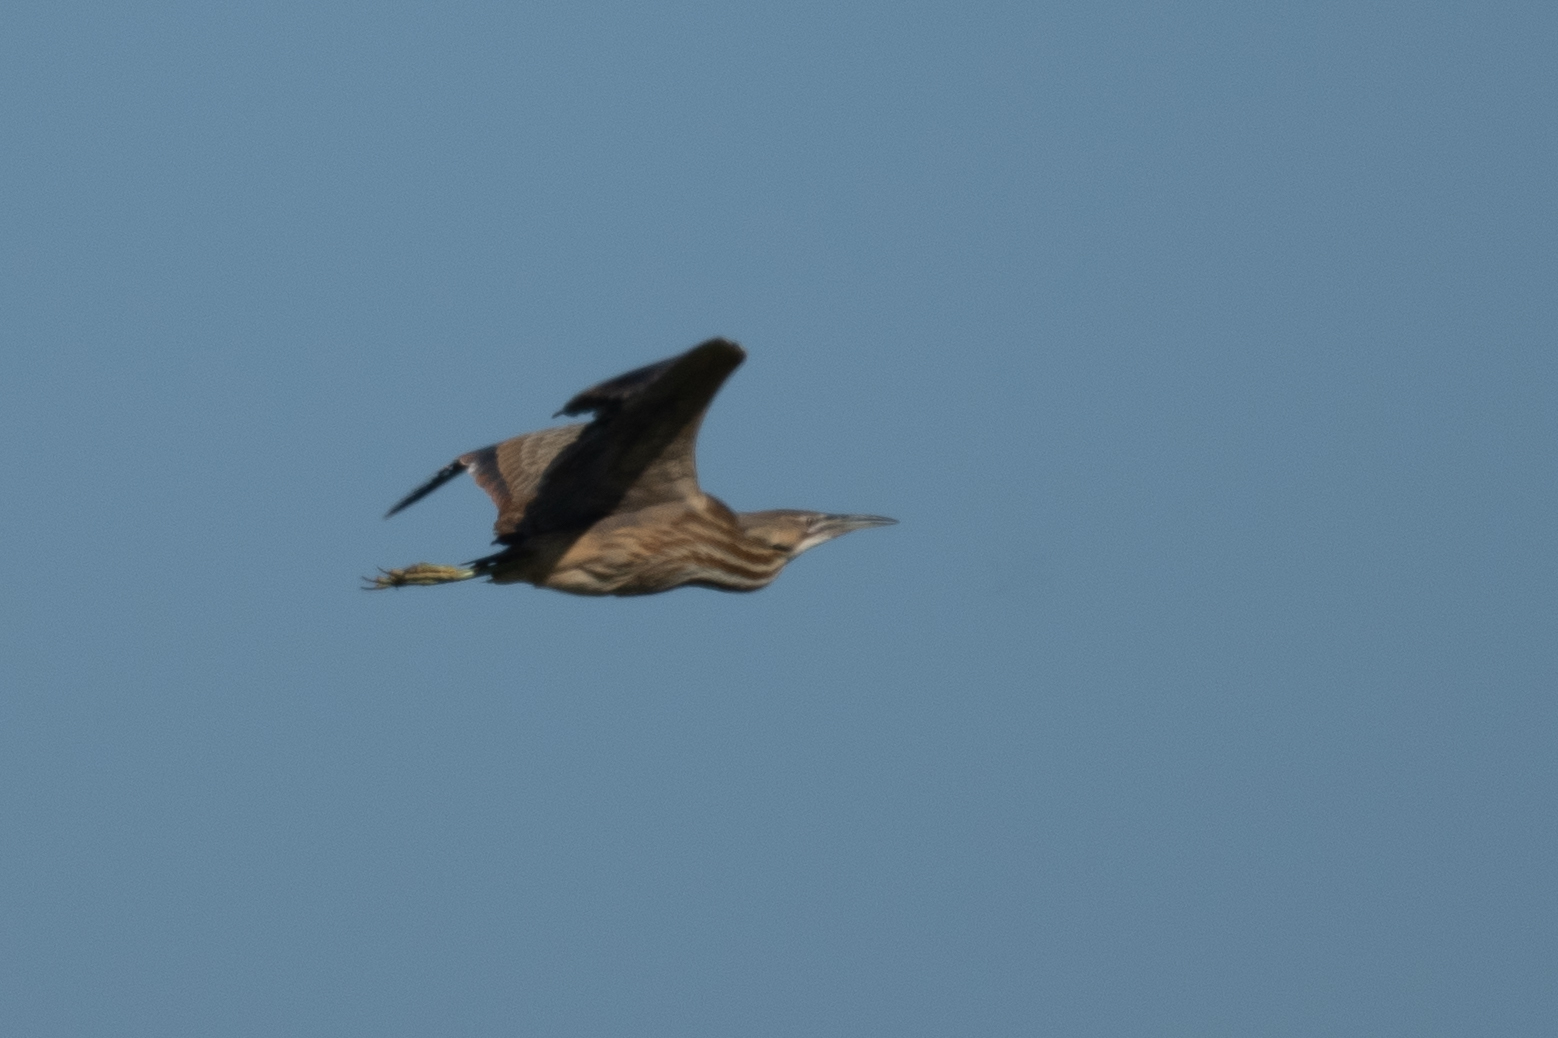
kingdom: Animalia
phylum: Chordata
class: Aves
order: Pelecaniformes
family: Ardeidae
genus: Botaurus
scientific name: Botaurus lentiginosus
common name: American bittern
